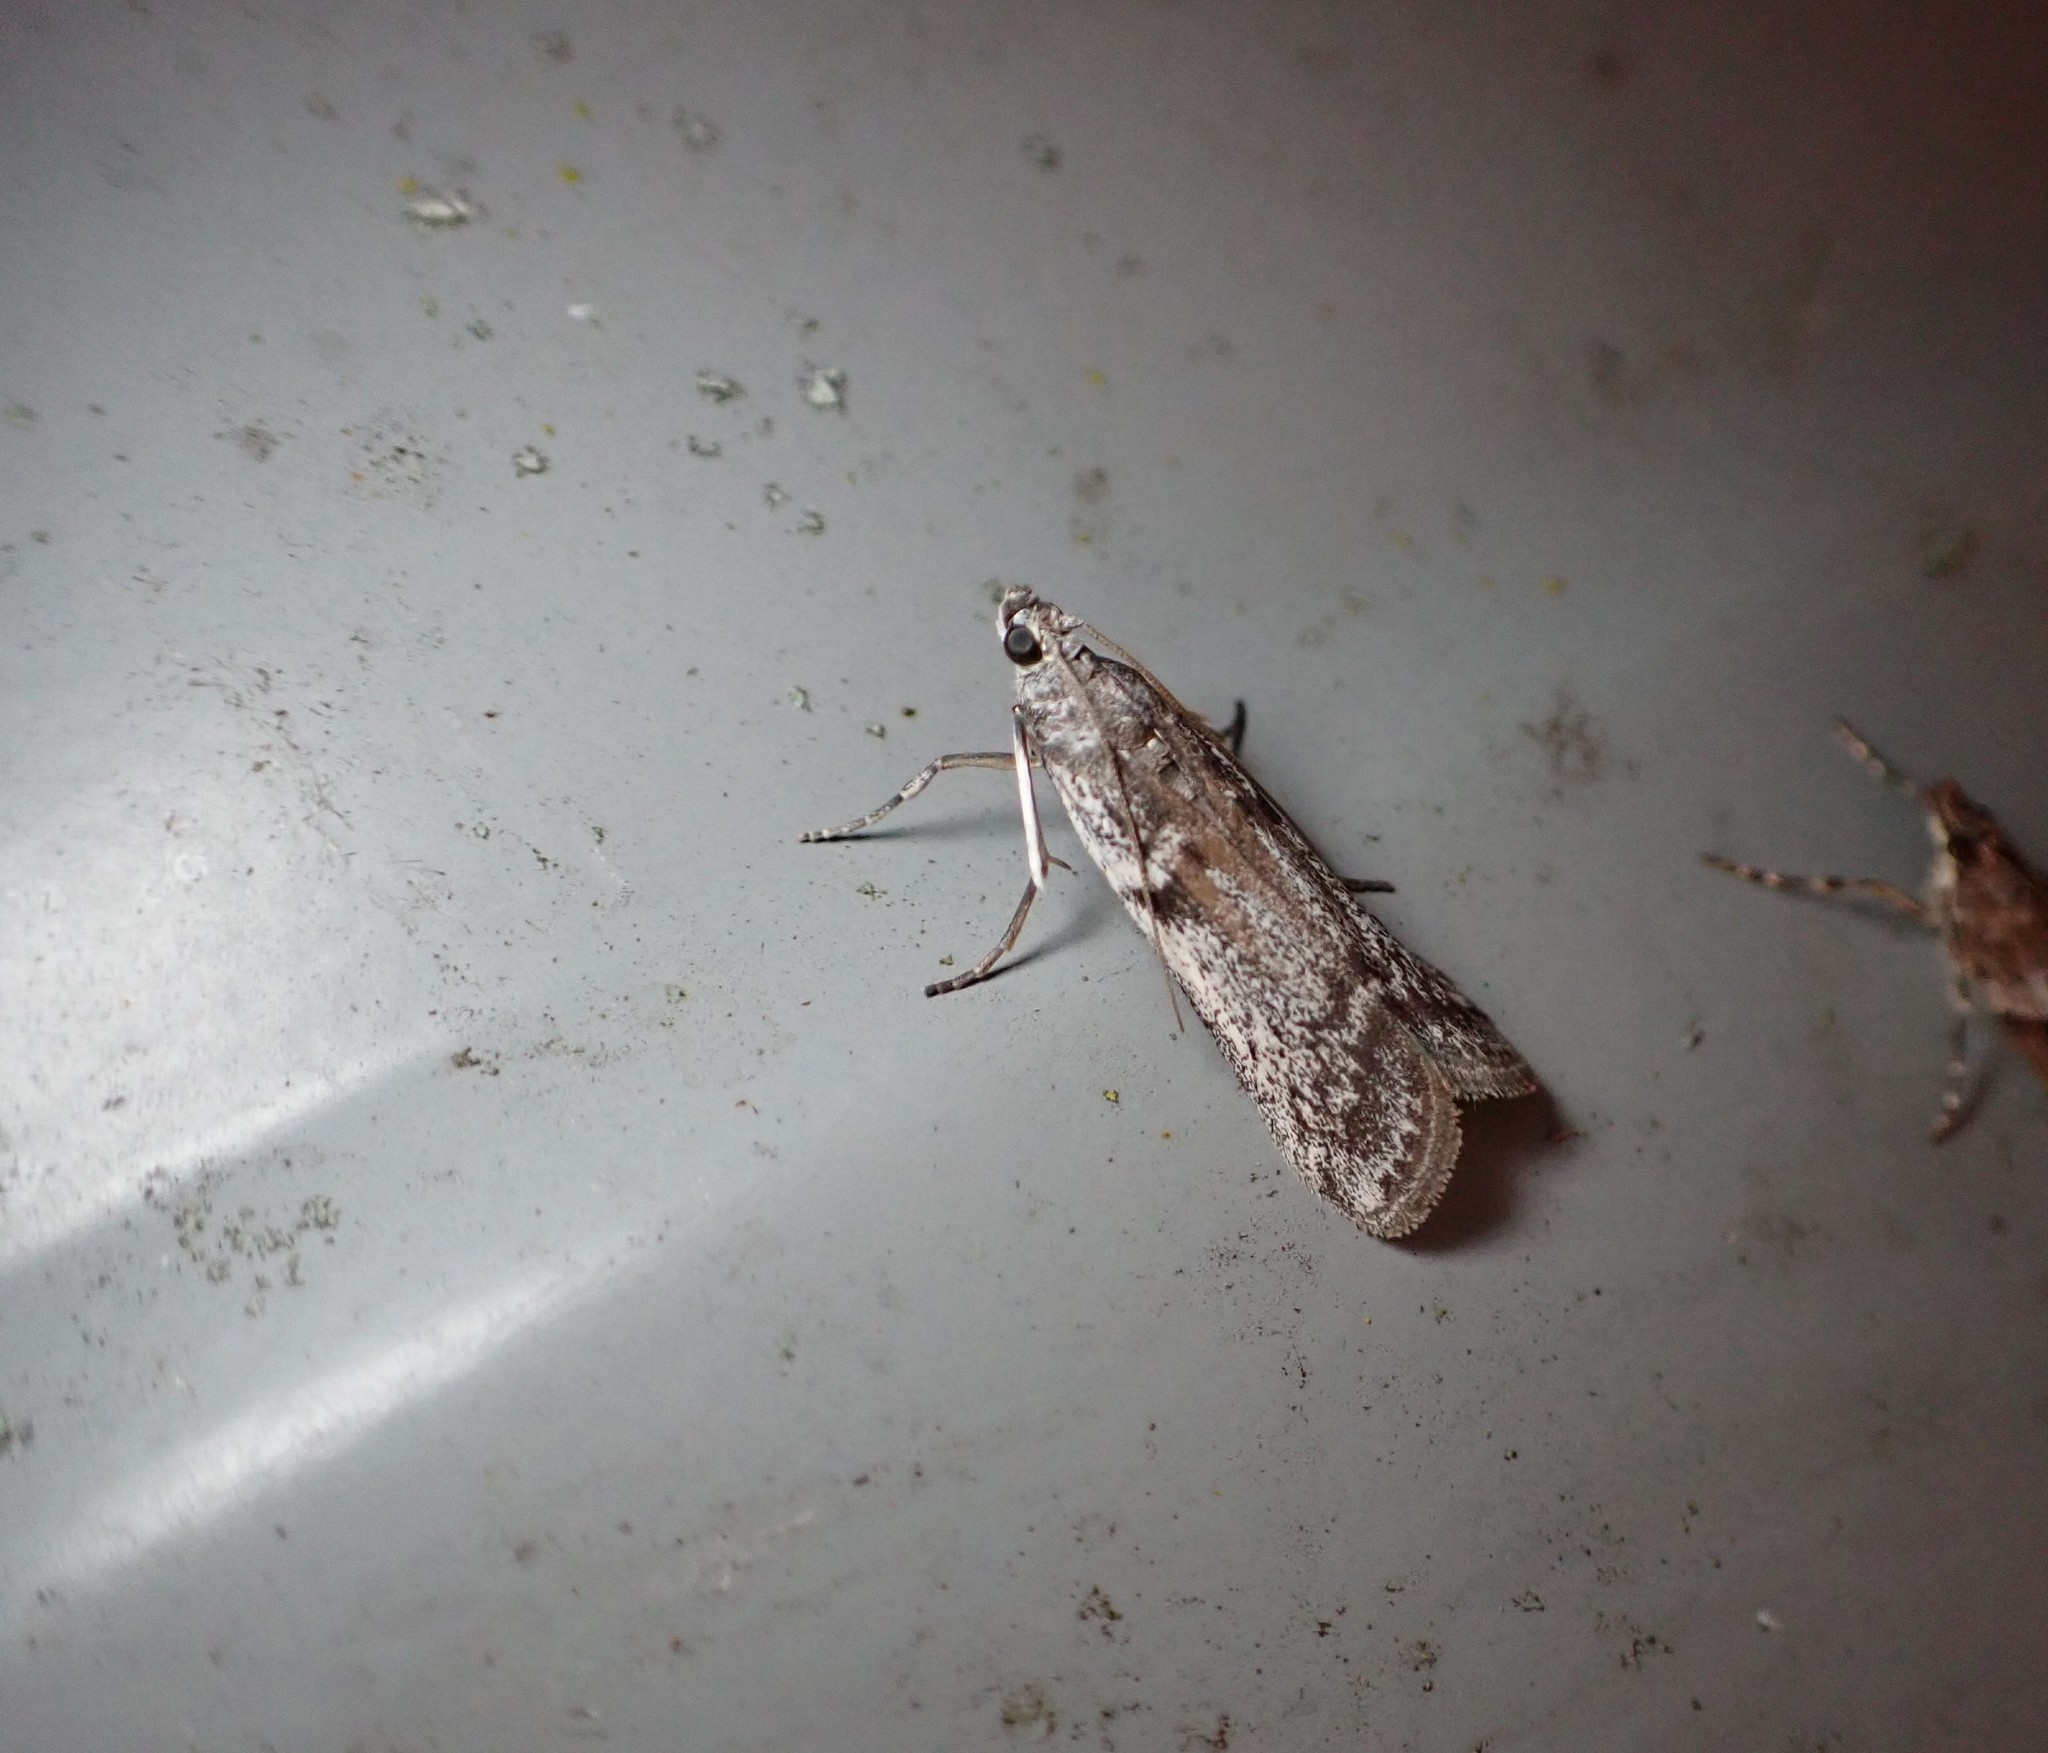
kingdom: Animalia
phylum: Arthropoda
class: Insecta
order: Lepidoptera
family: Pyralidae
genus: Patagoniodes
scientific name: Patagoniodes farinaria
